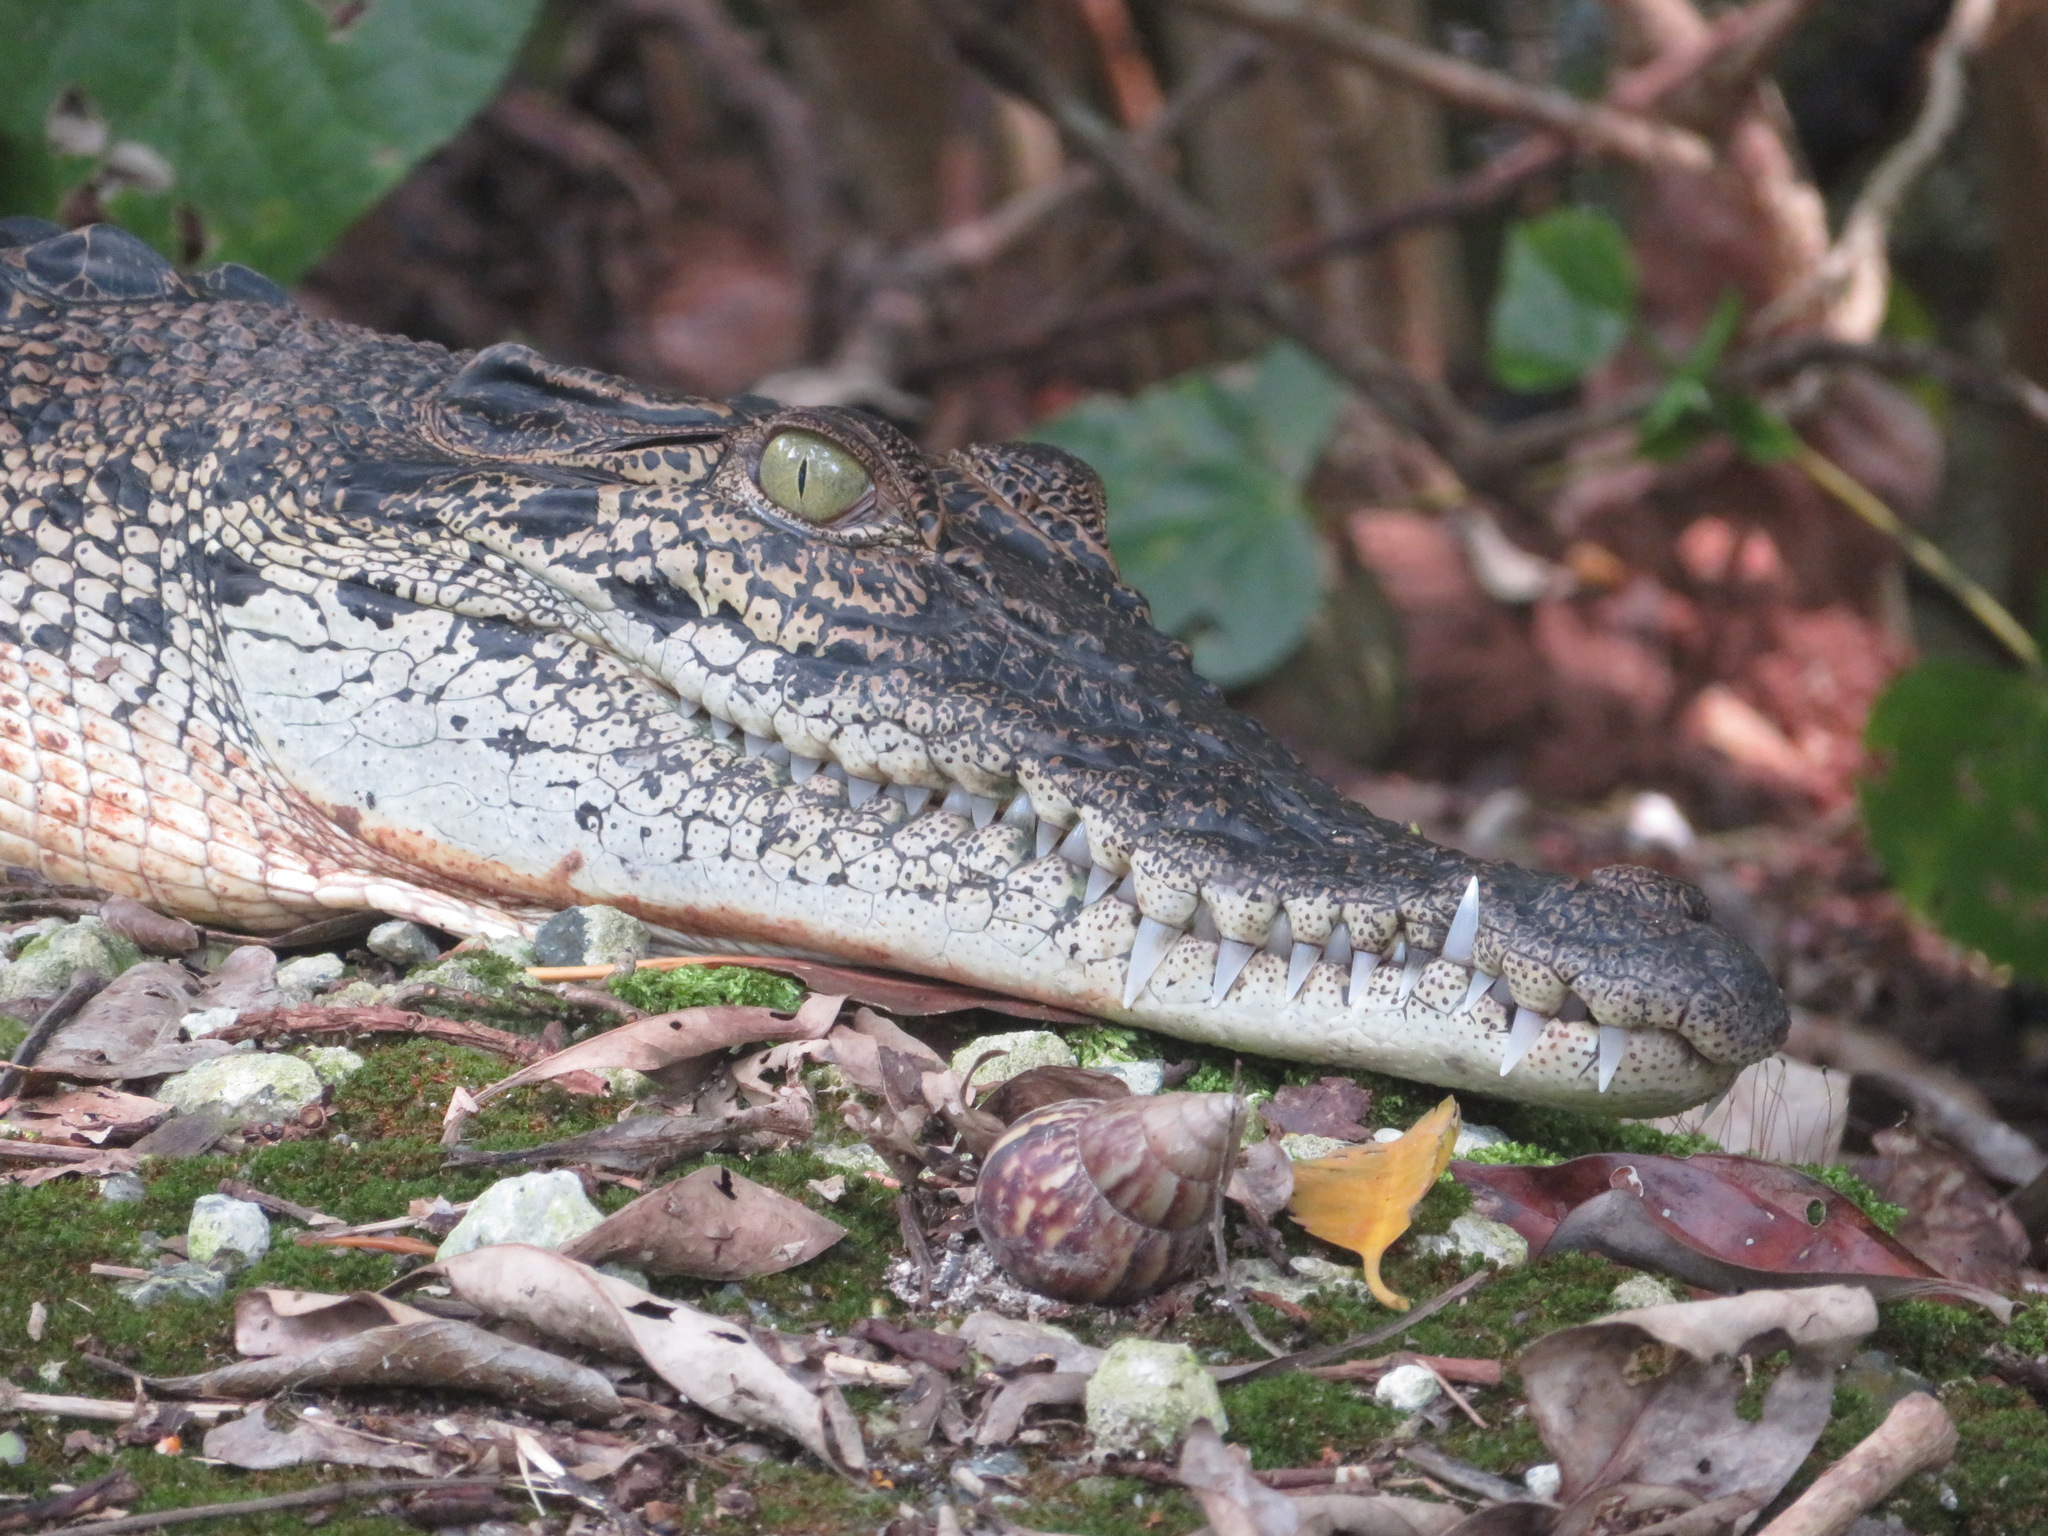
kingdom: Animalia
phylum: Chordata
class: Crocodylia
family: Crocodylidae
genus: Crocodylus
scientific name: Crocodylus porosus
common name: Saltwater crocodile
